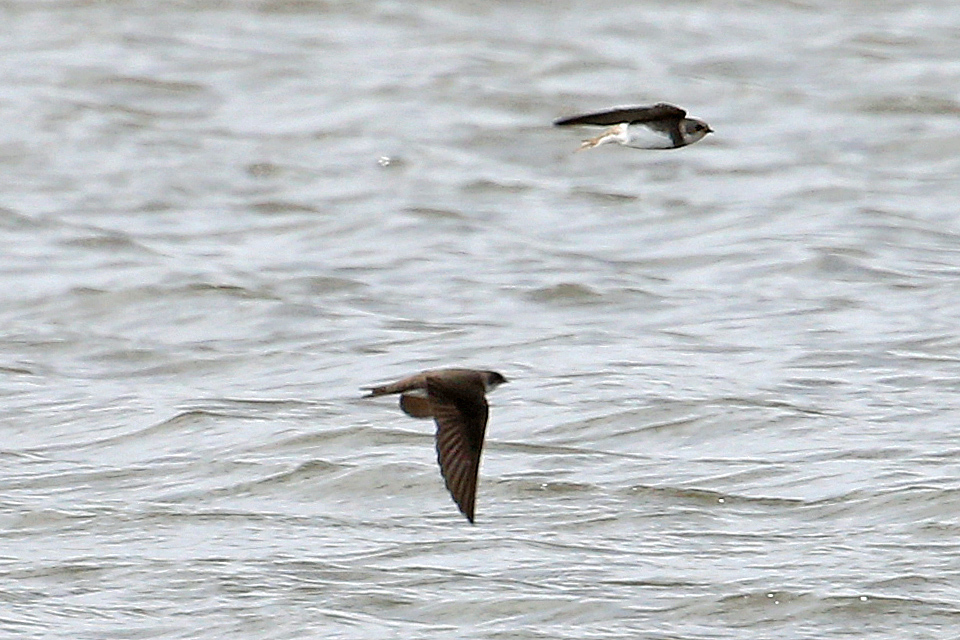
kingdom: Animalia
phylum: Chordata
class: Aves
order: Passeriformes
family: Hirundinidae
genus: Riparia
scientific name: Riparia riparia
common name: Sand martin
